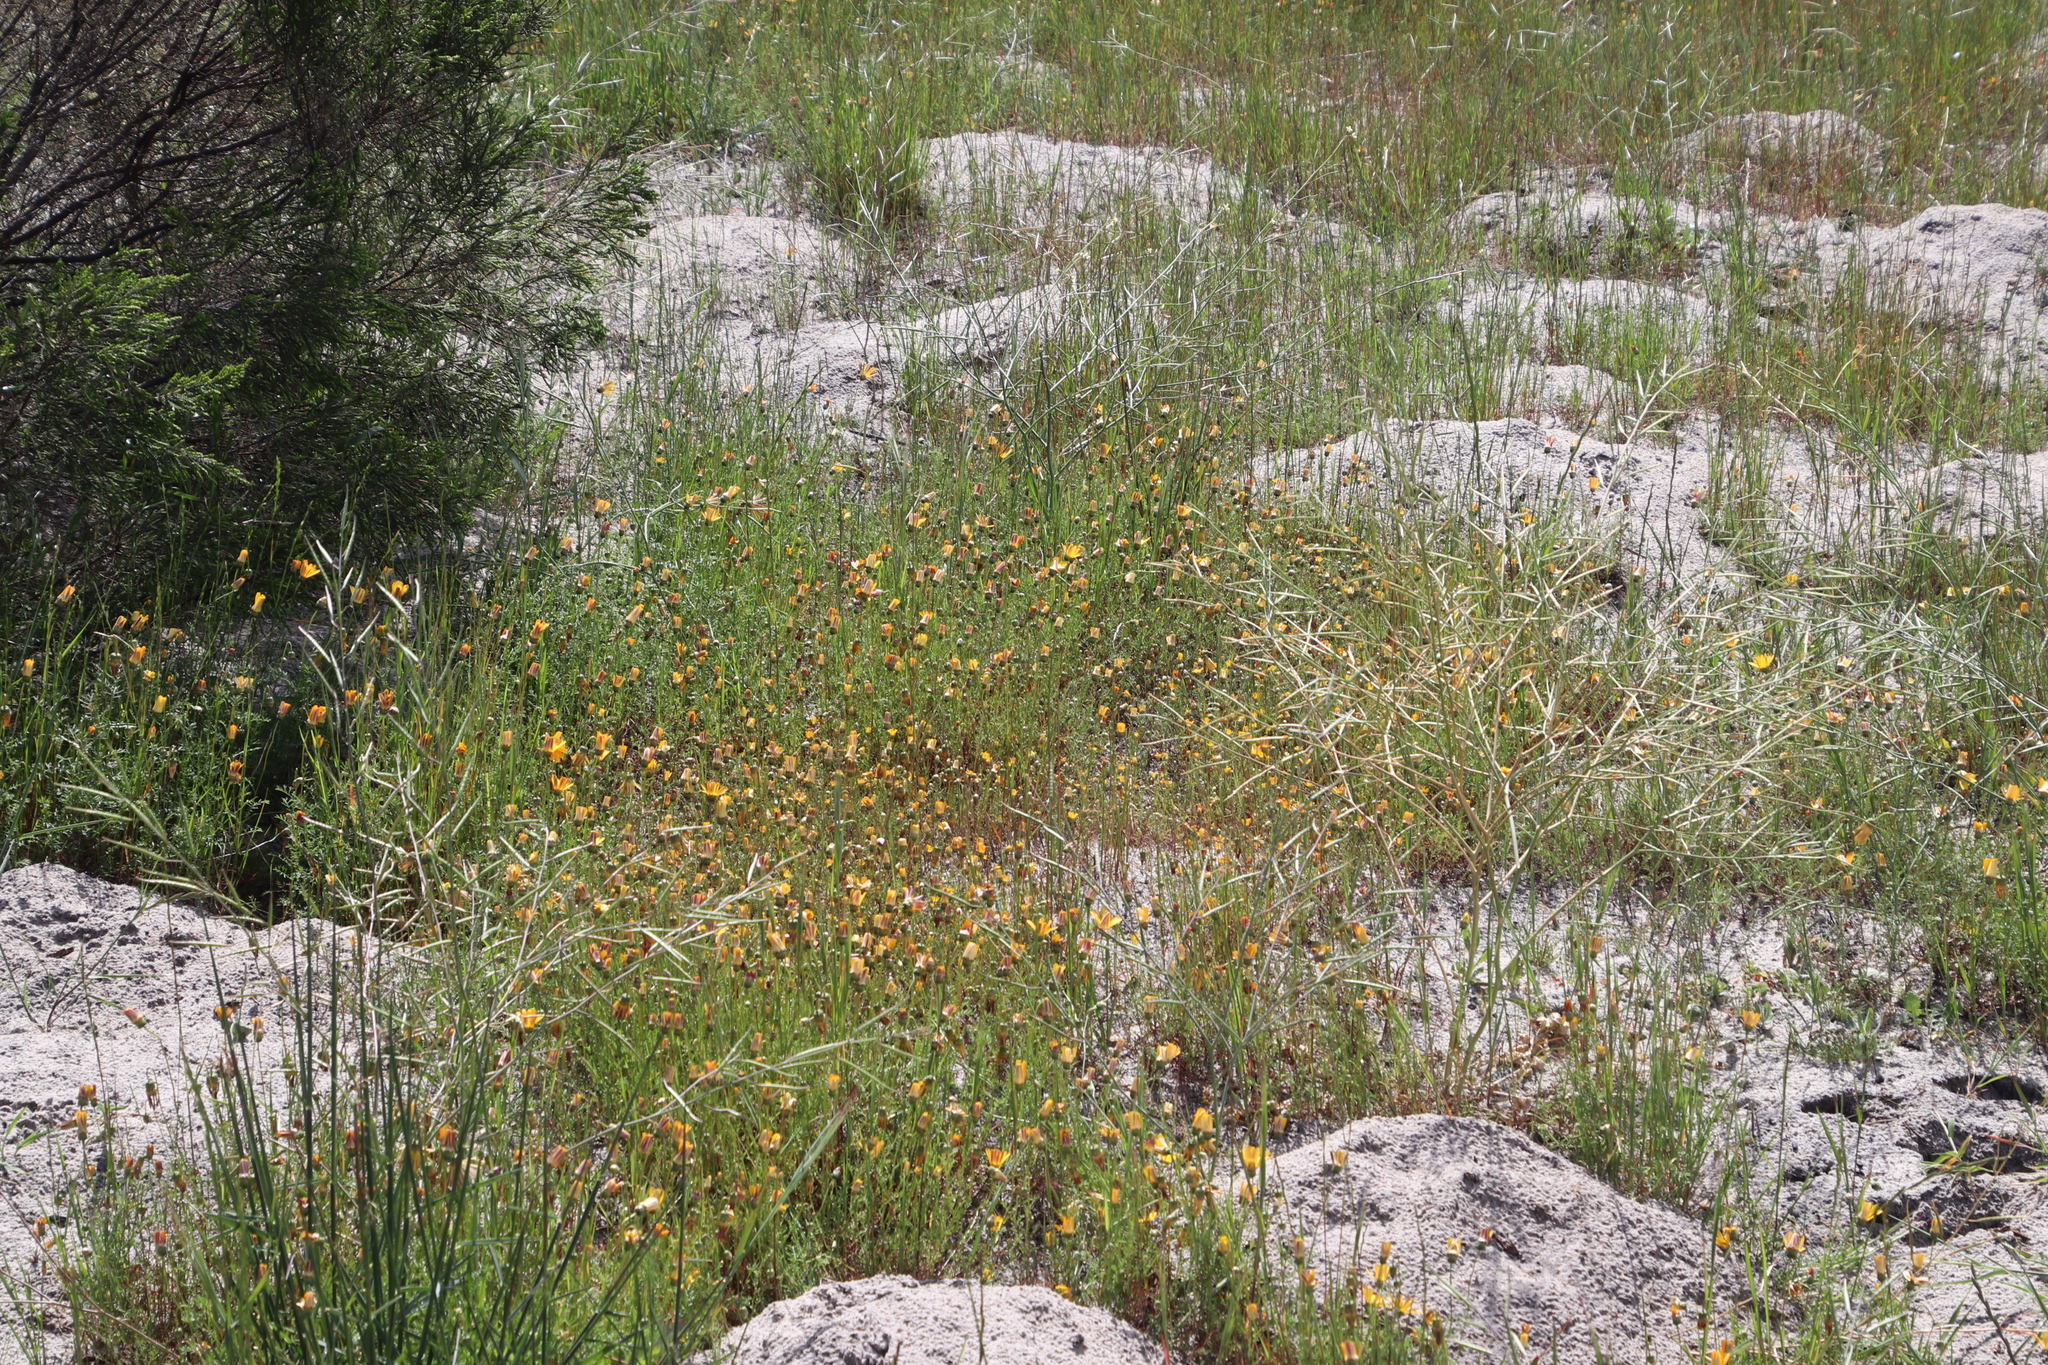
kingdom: Plantae
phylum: Tracheophyta
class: Magnoliopsida
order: Asterales
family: Asteraceae
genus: Ursinia
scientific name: Ursinia anthemoides
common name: Ursinia
